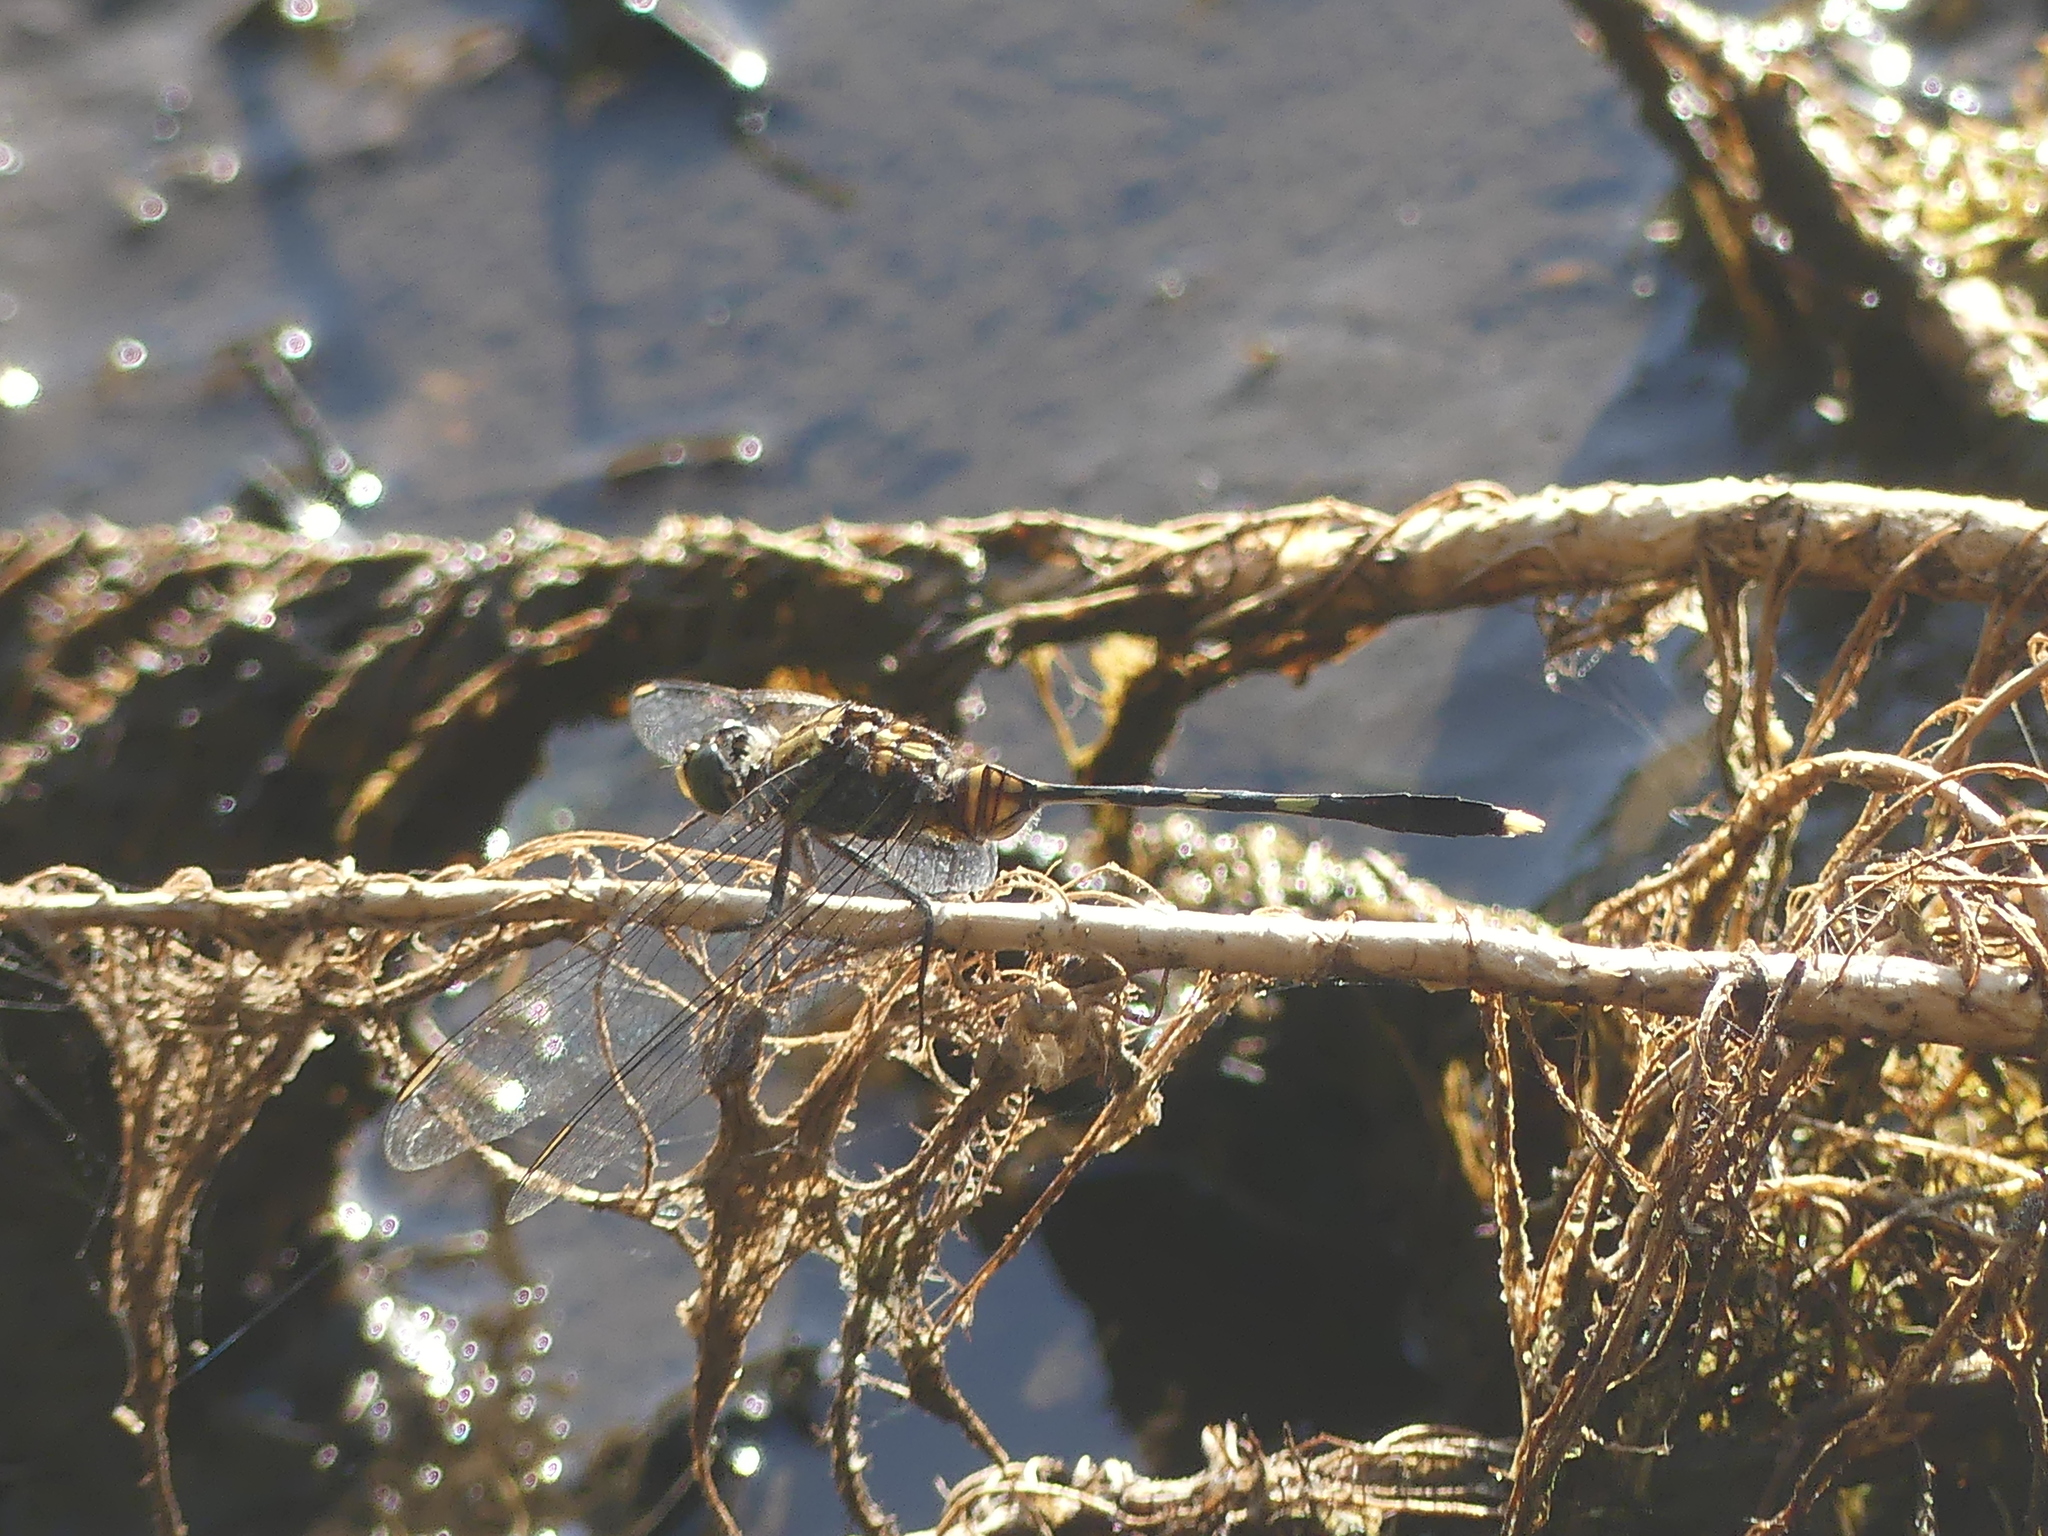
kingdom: Animalia
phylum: Arthropoda
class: Insecta
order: Odonata
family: Libellulidae
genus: Orthetrum
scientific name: Orthetrum serapia
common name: Green skimmer
